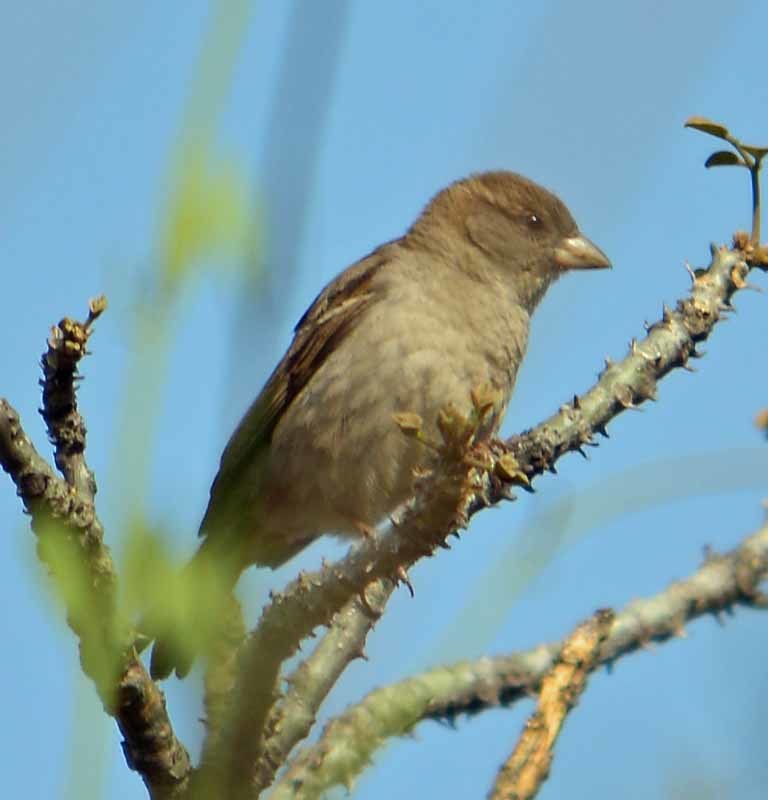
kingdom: Animalia
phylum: Chordata
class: Aves
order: Passeriformes
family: Passeridae
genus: Passer
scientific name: Passer domesticus
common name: House sparrow
